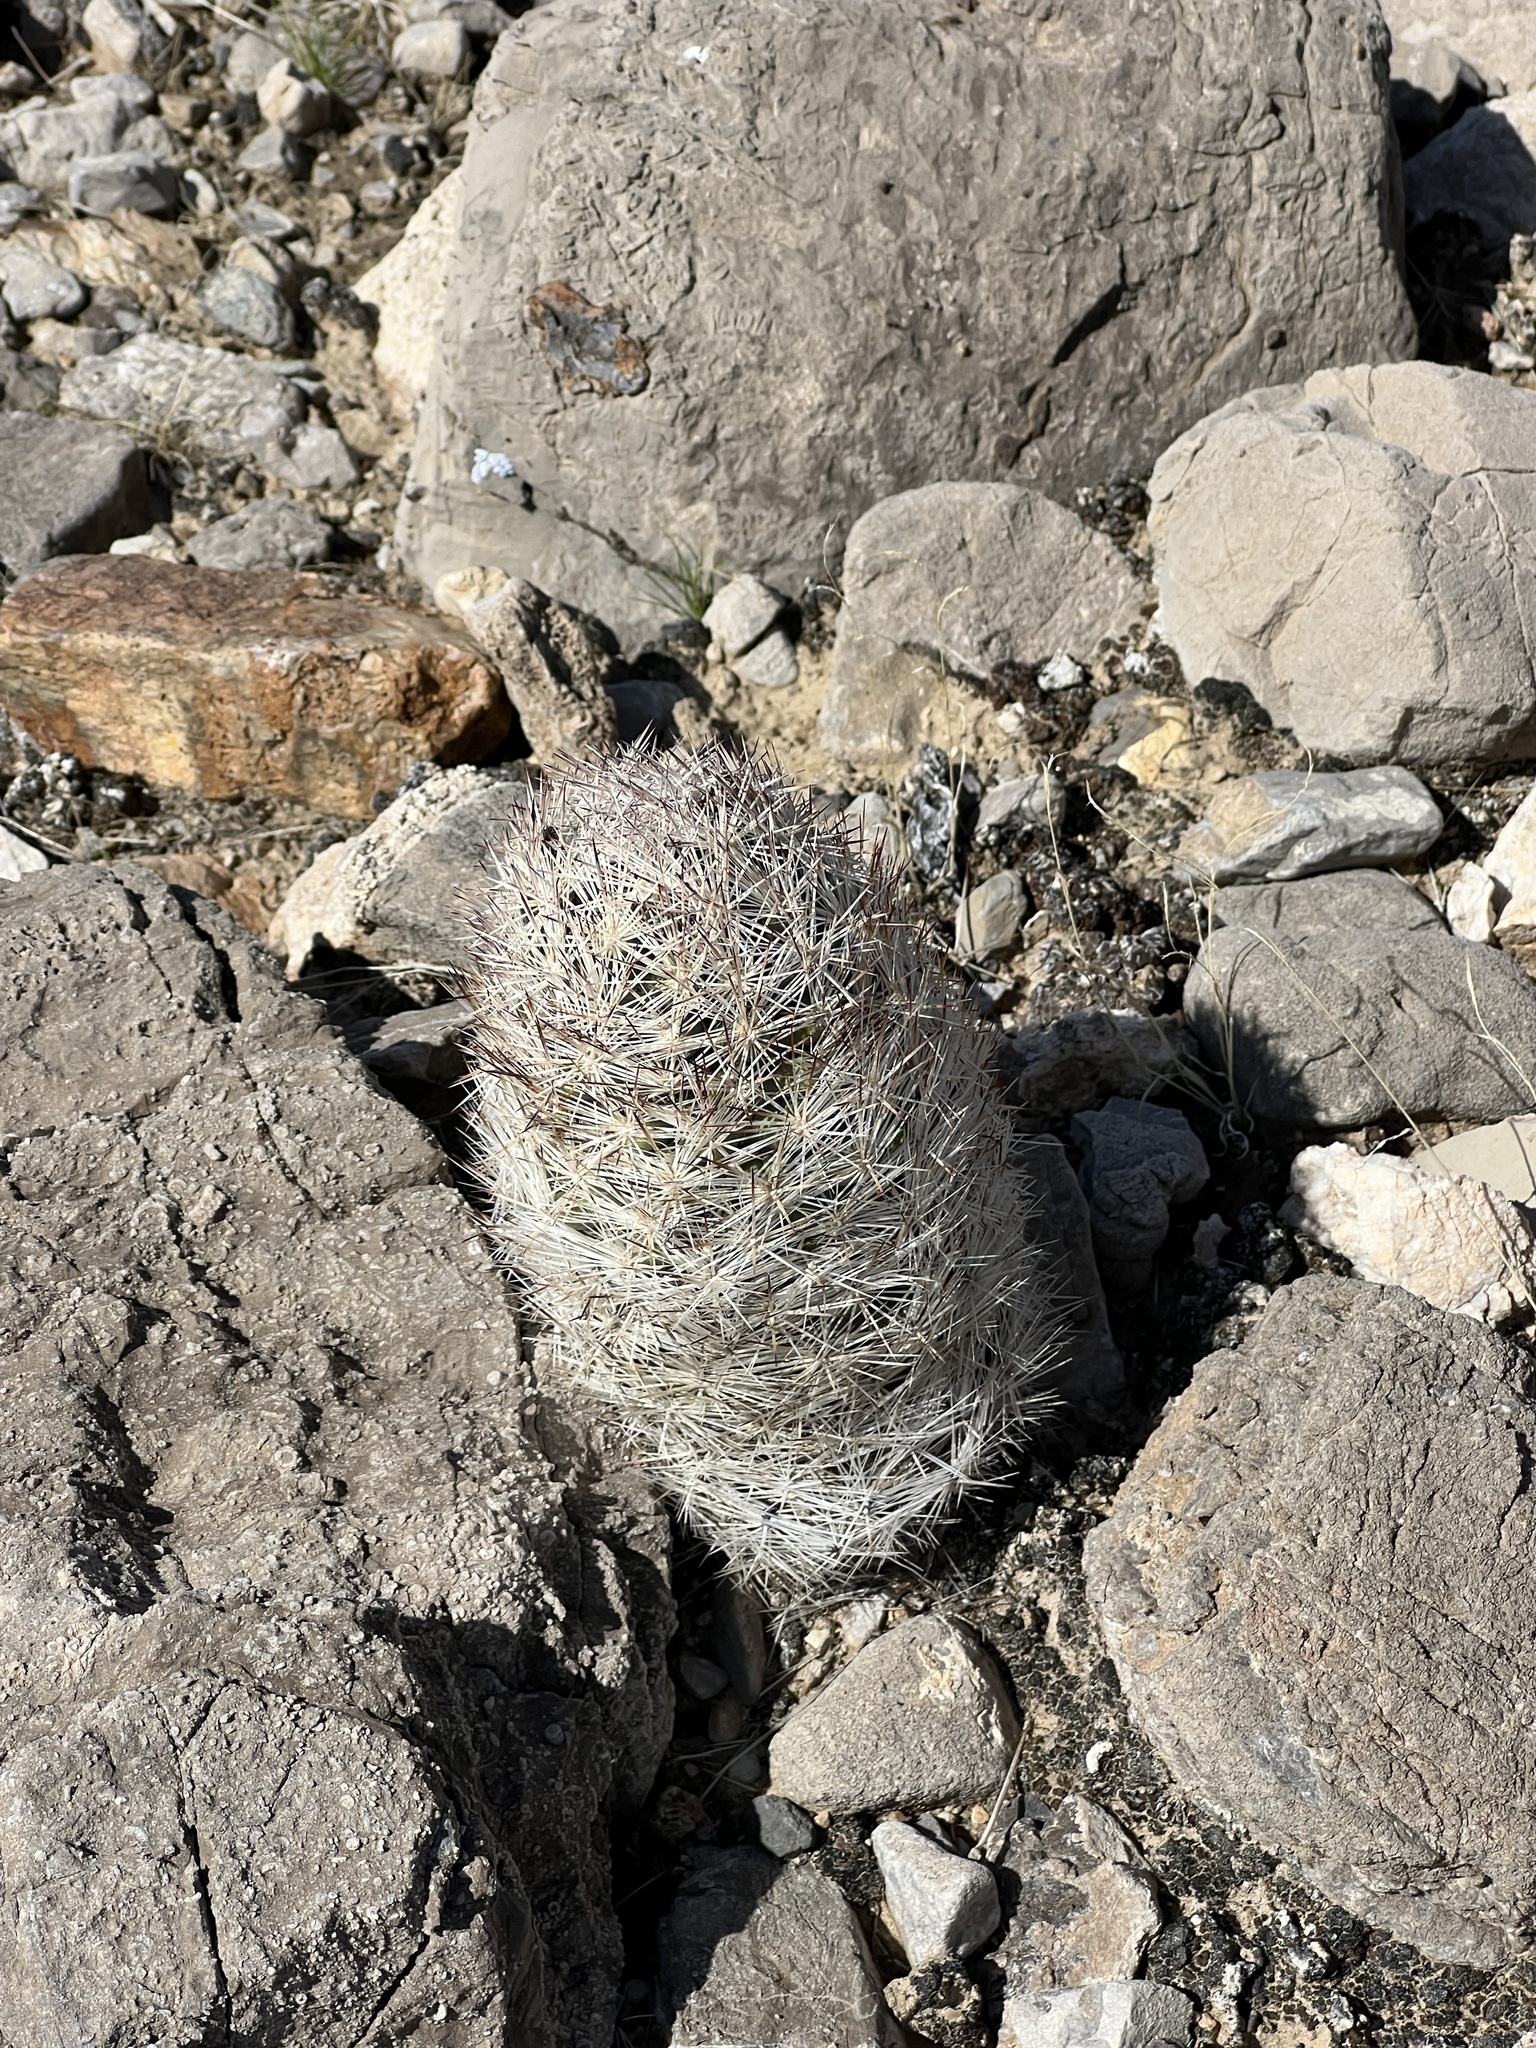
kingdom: Plantae
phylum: Tracheophyta
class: Magnoliopsida
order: Caryophyllales
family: Cactaceae
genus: Pelecyphora
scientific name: Pelecyphora dasyacantha
